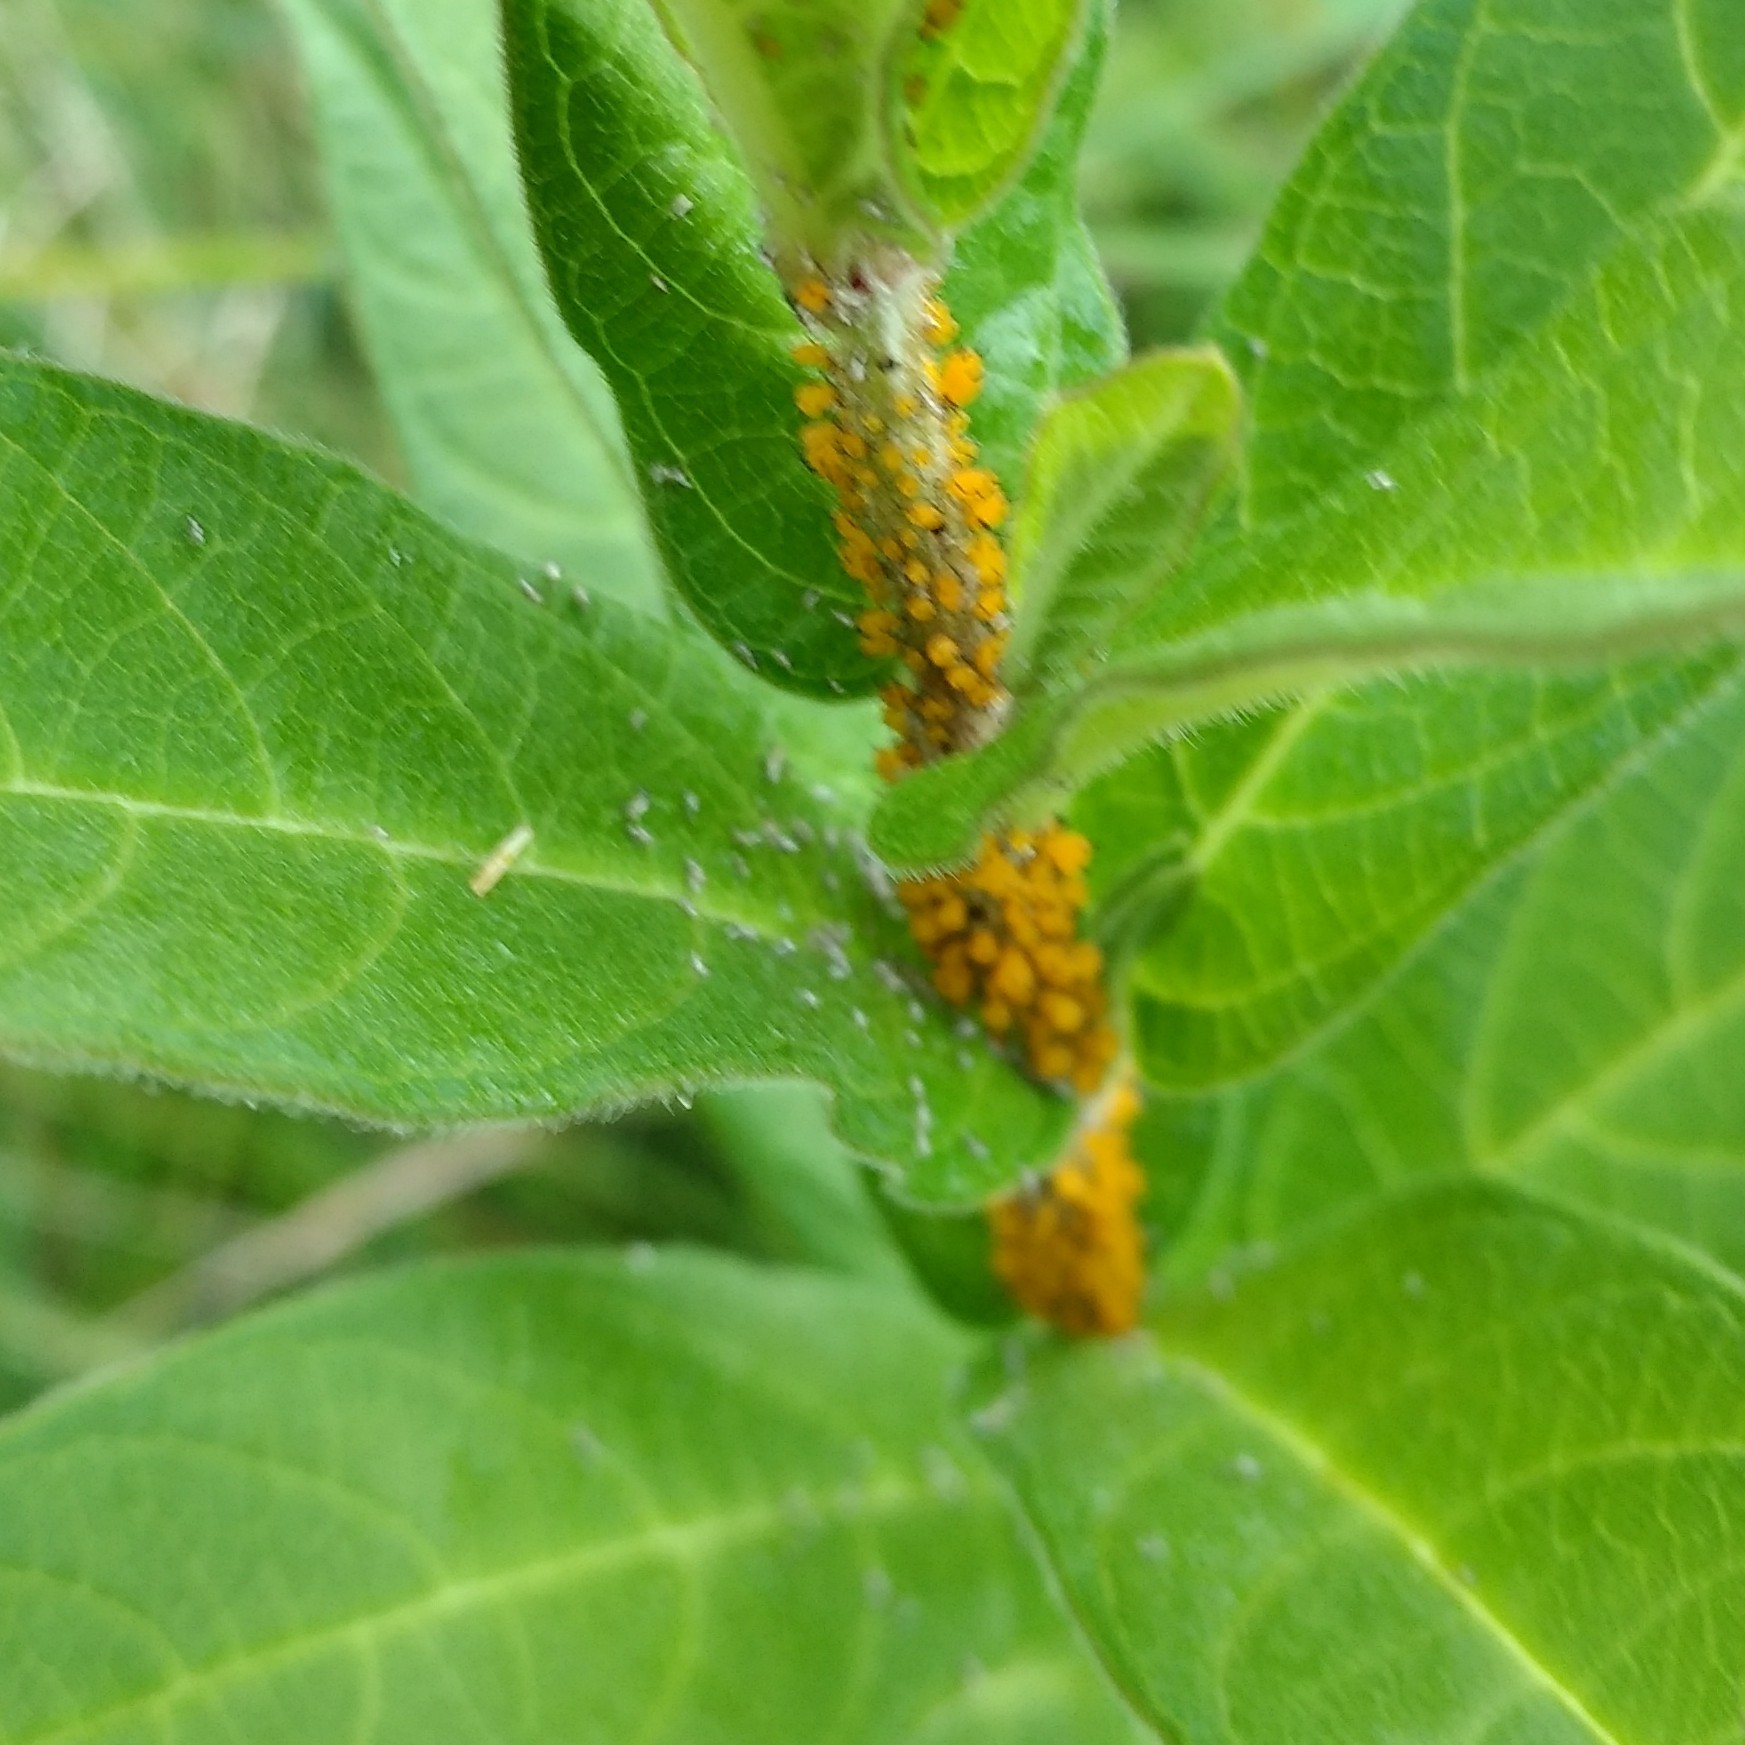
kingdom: Animalia
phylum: Arthropoda
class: Insecta
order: Hemiptera
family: Aphididae
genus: Aphis
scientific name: Aphis nerii
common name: Oleander aphid
